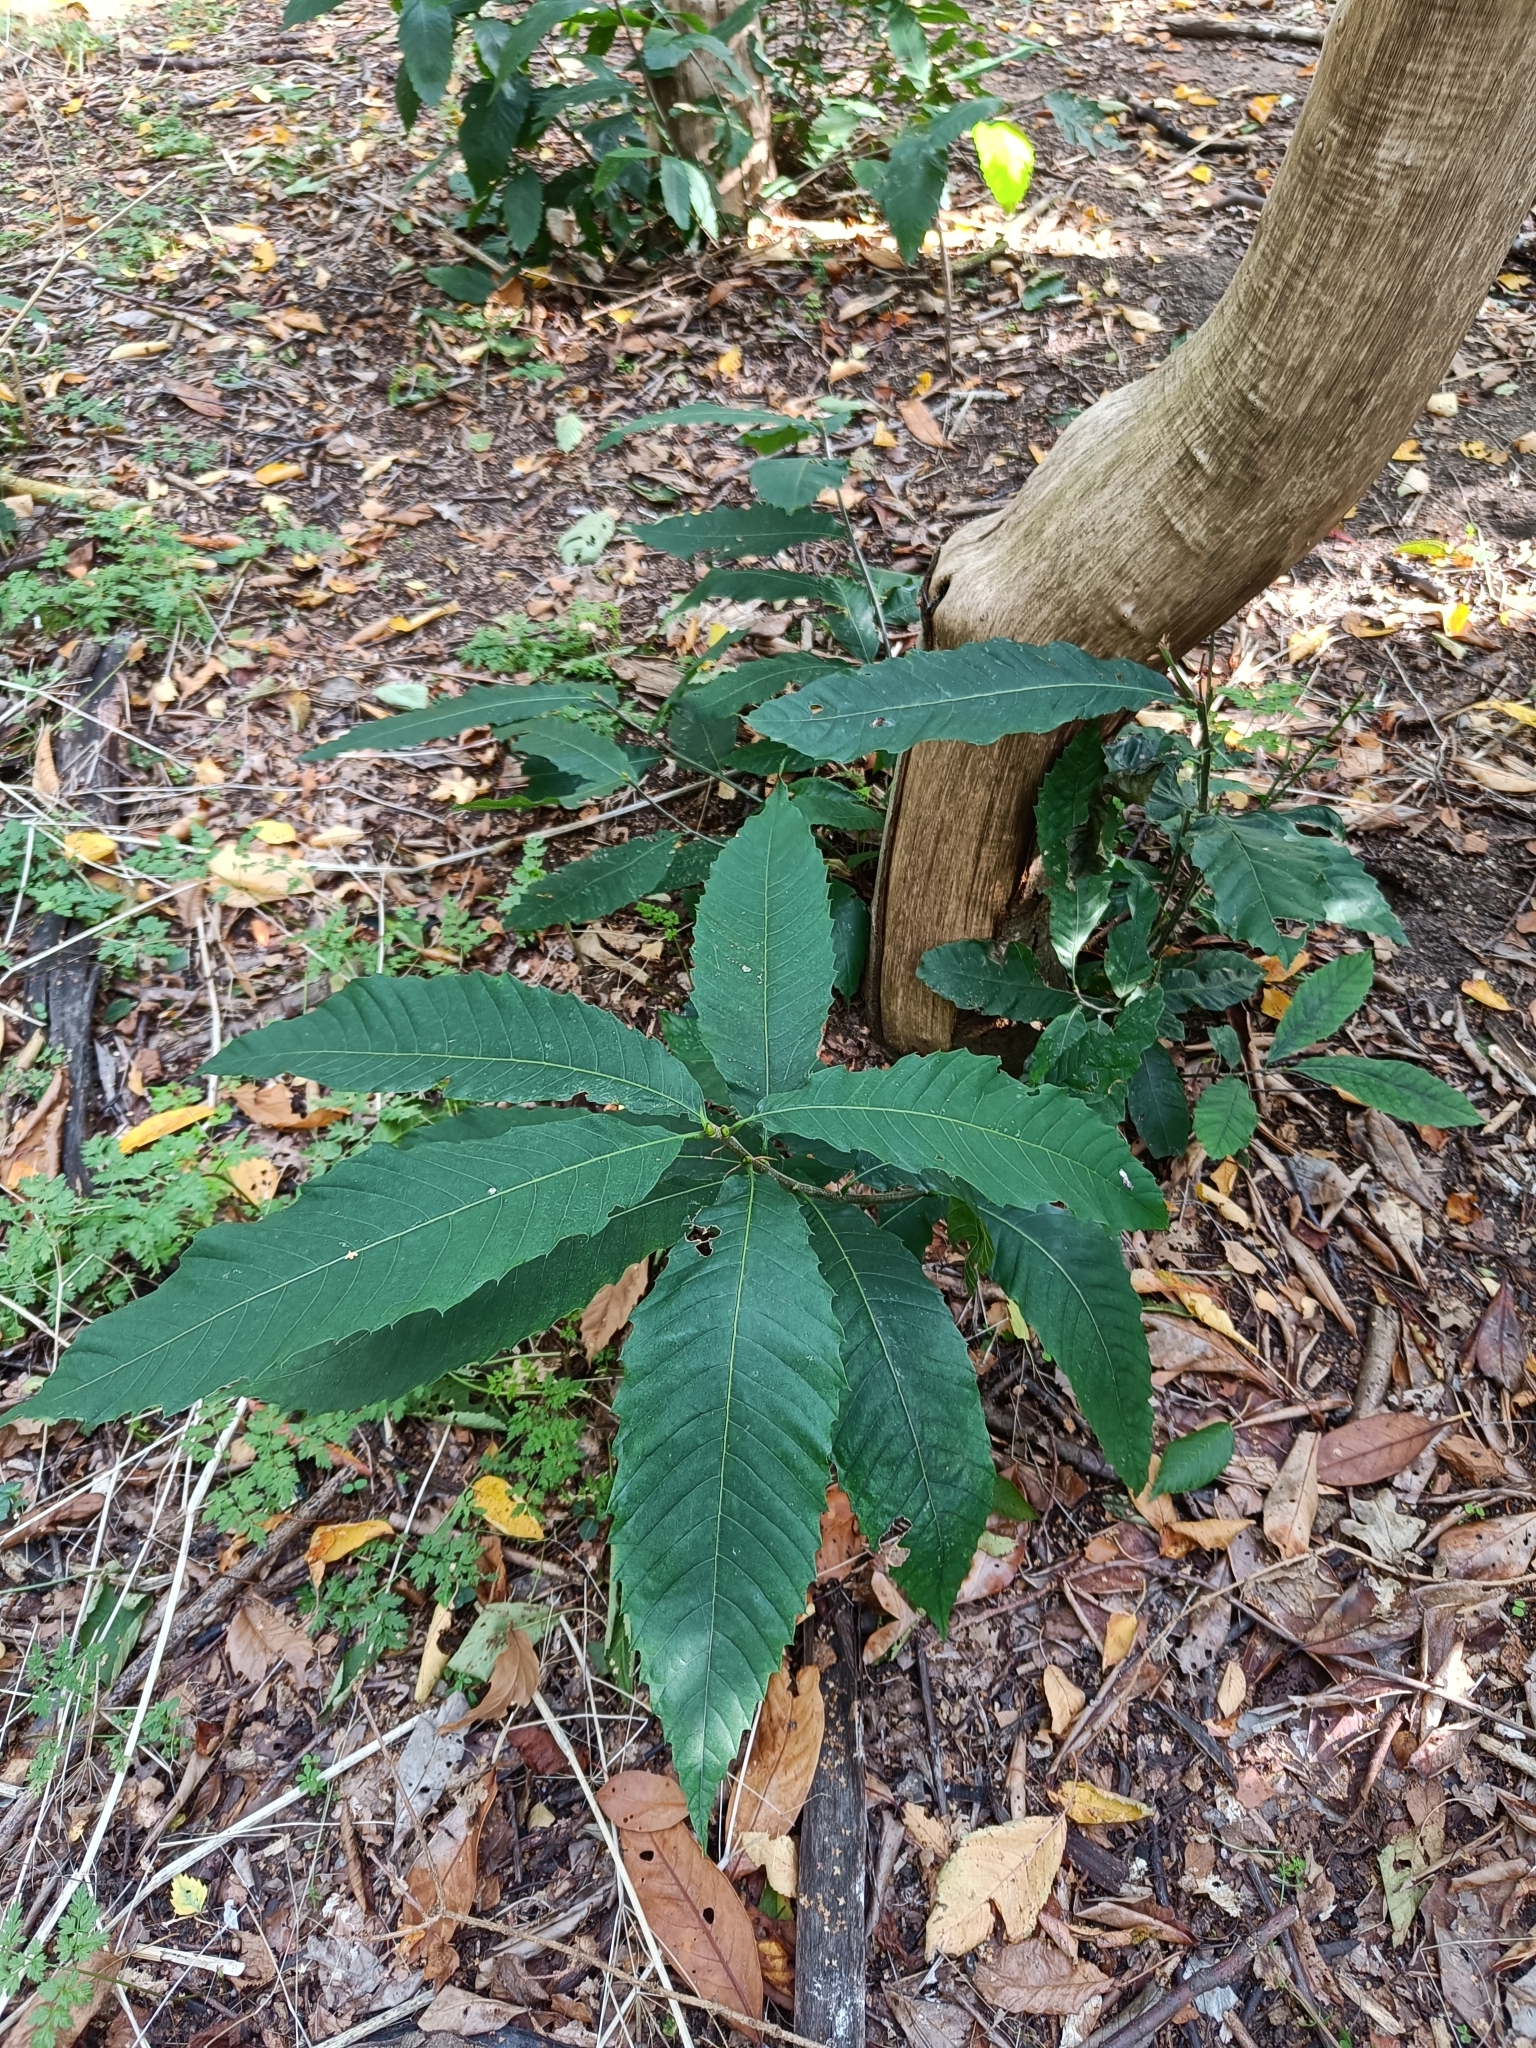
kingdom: Plantae
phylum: Tracheophyta
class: Magnoliopsida
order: Fagales
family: Fagaceae
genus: Castanea
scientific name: Castanea sativa
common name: Sweet chestnut
